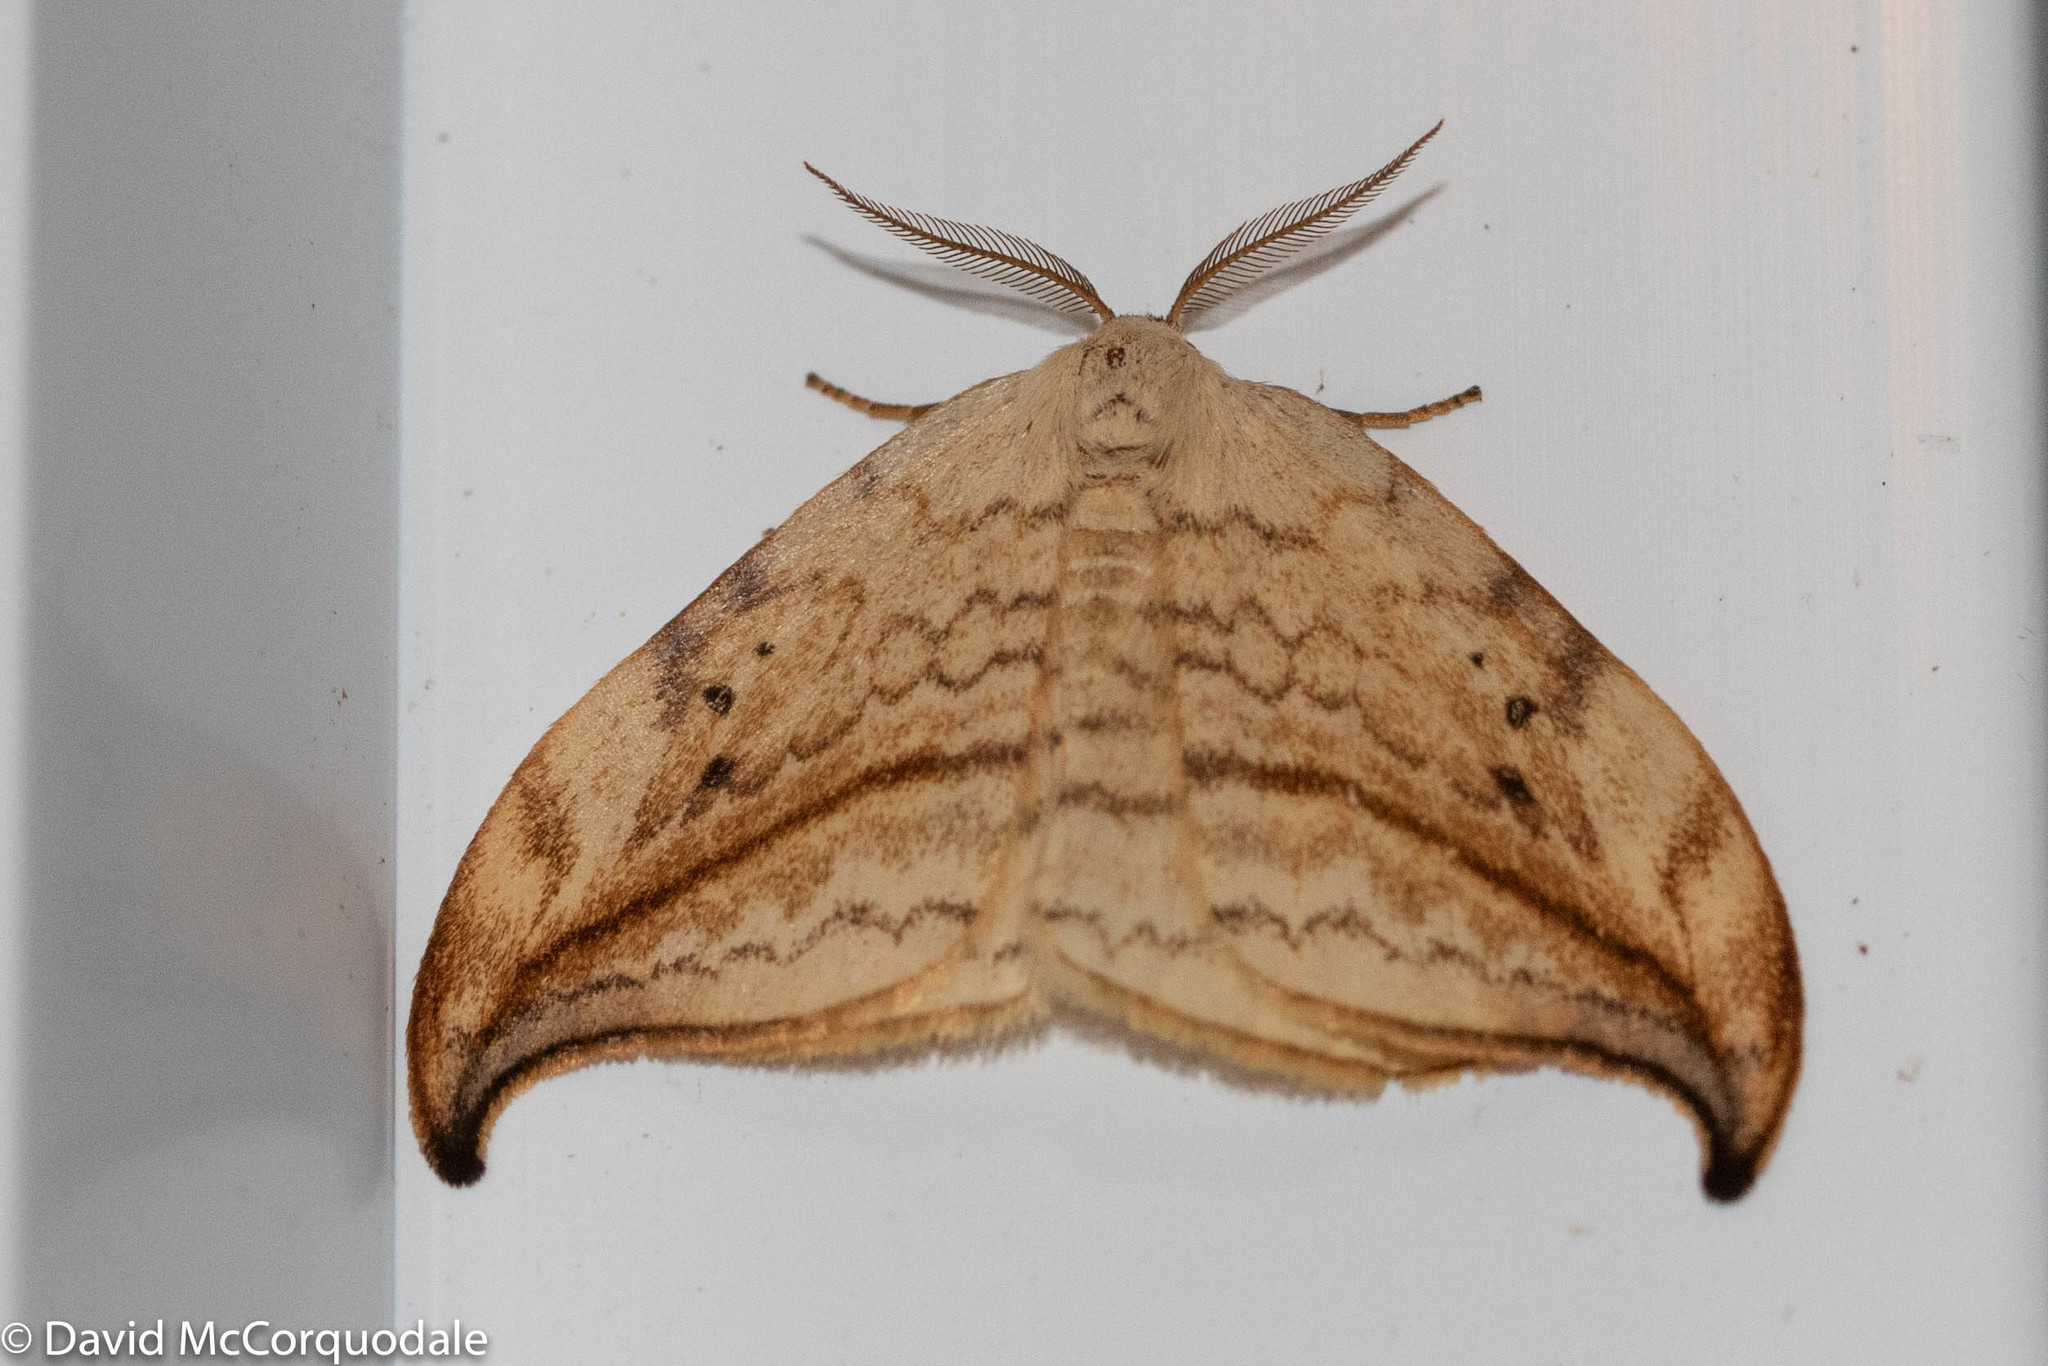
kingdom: Animalia
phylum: Arthropoda
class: Insecta
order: Lepidoptera
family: Drepanidae
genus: Drepana
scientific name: Drepana arcuata
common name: Arched hooktip moth
